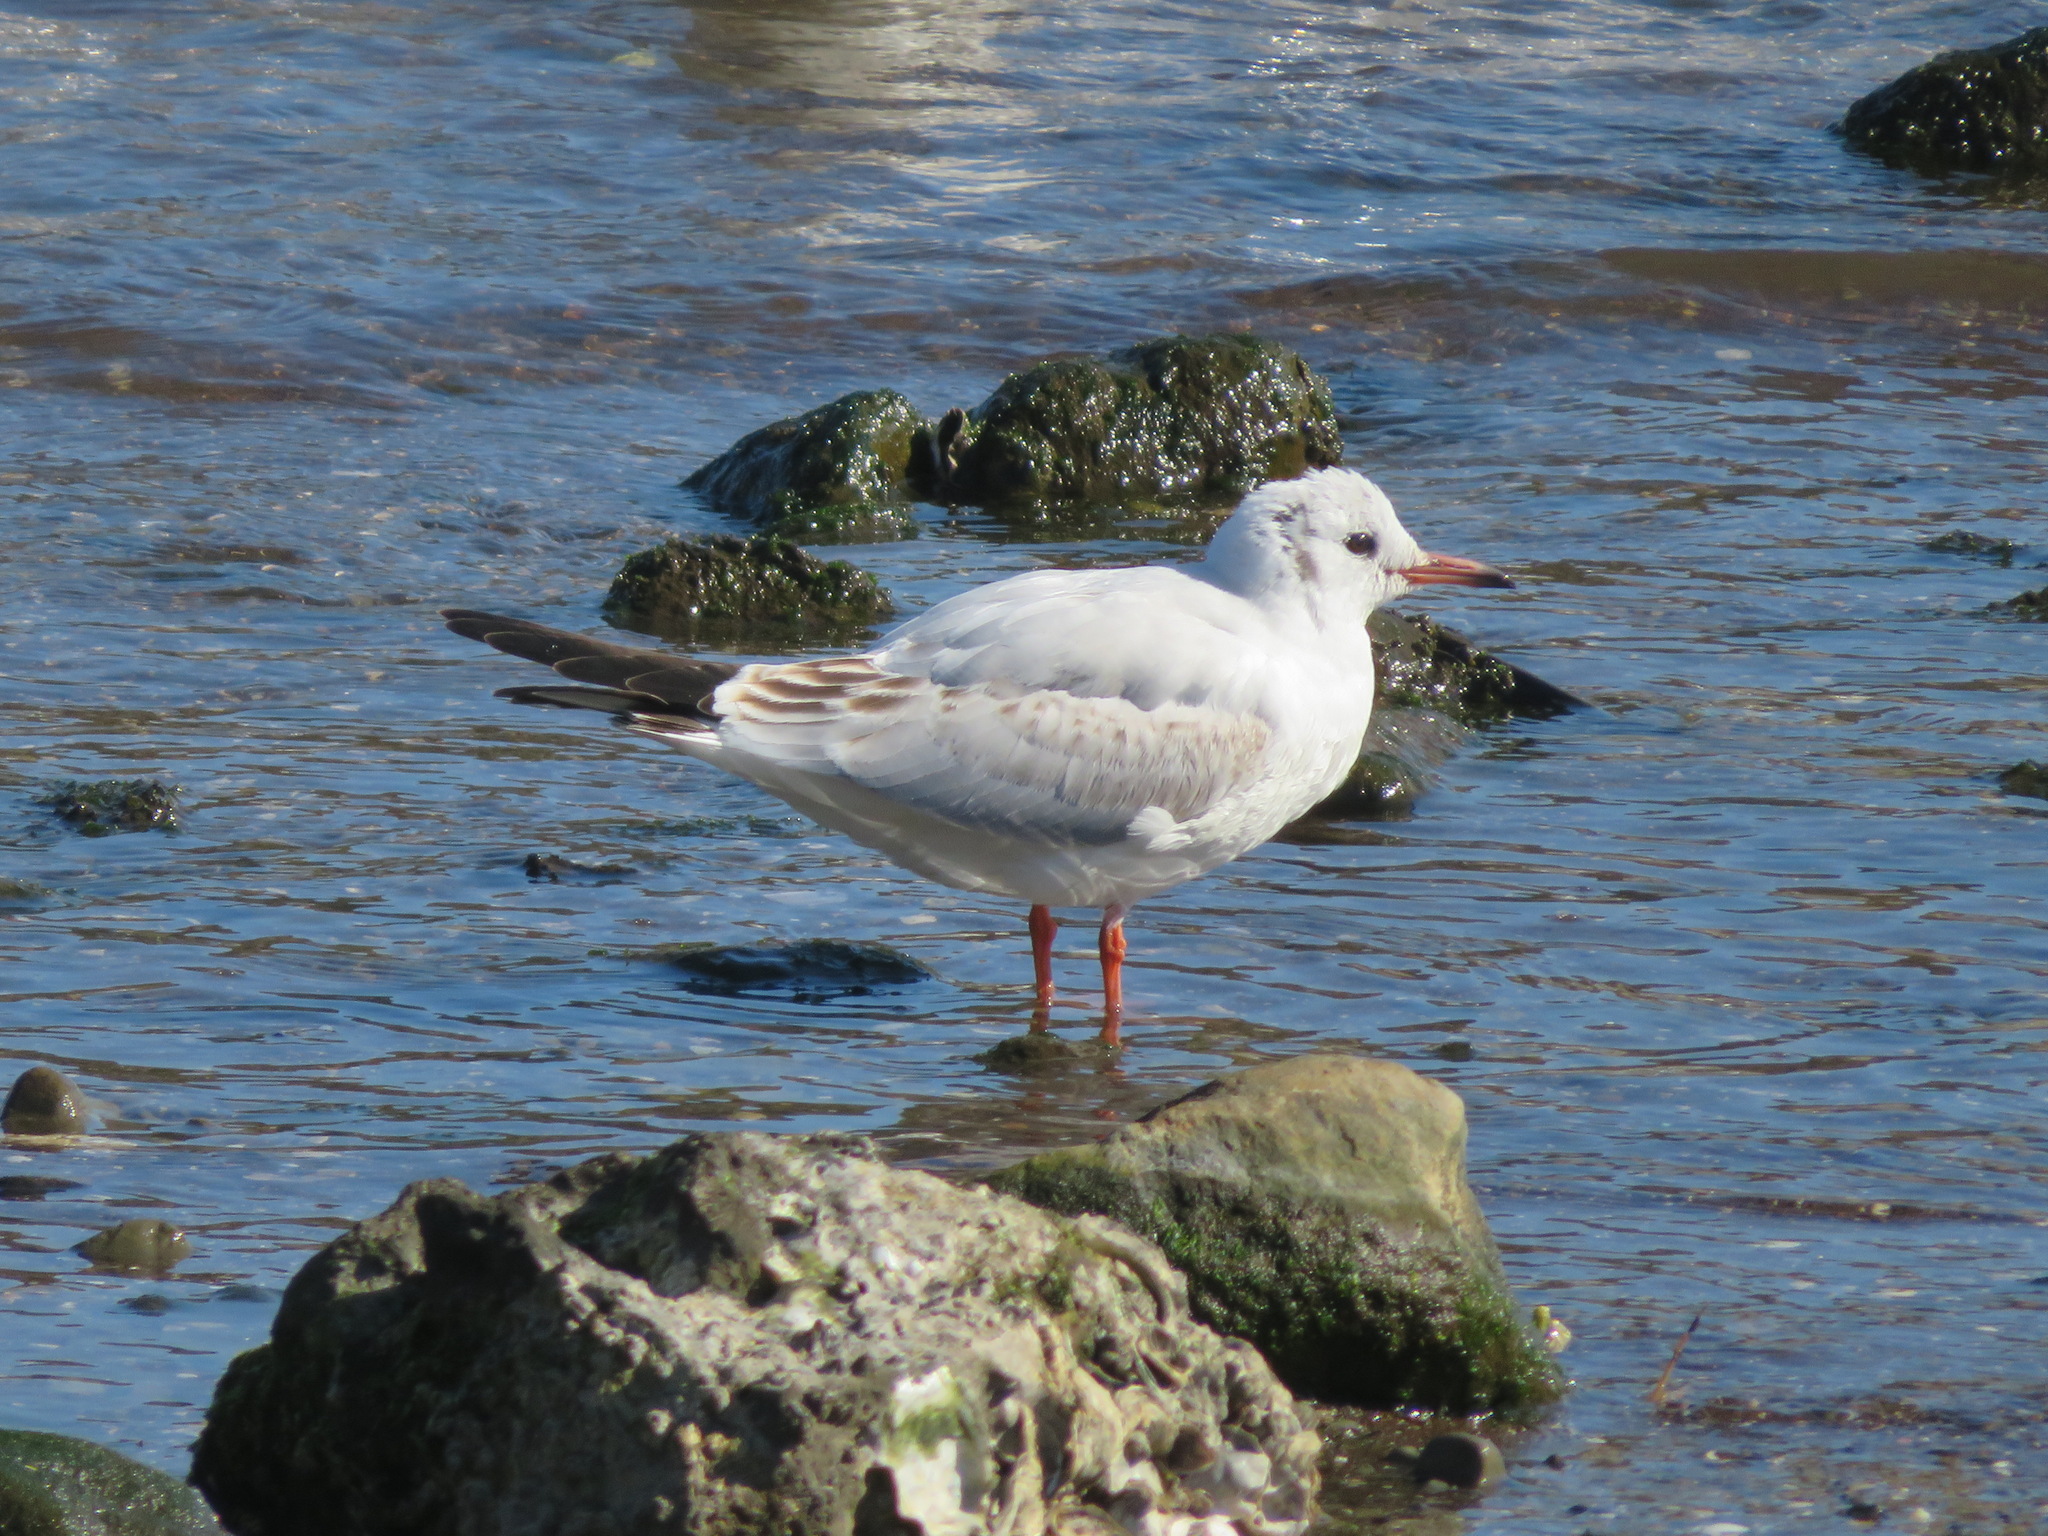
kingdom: Animalia
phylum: Chordata
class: Aves
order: Charadriiformes
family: Laridae
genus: Chroicocephalus
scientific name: Chroicocephalus ridibundus
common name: Black-headed gull
